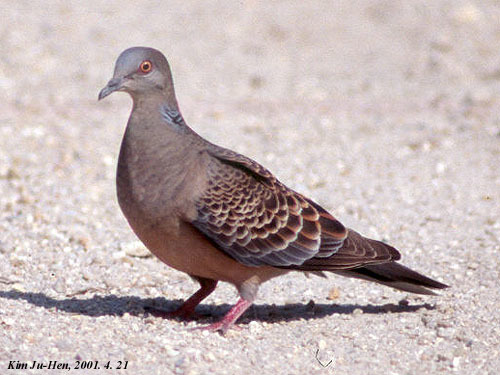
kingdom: Animalia
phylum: Chordata
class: Aves
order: Columbiformes
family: Columbidae
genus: Streptopelia
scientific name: Streptopelia orientalis
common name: Oriental turtle dove
